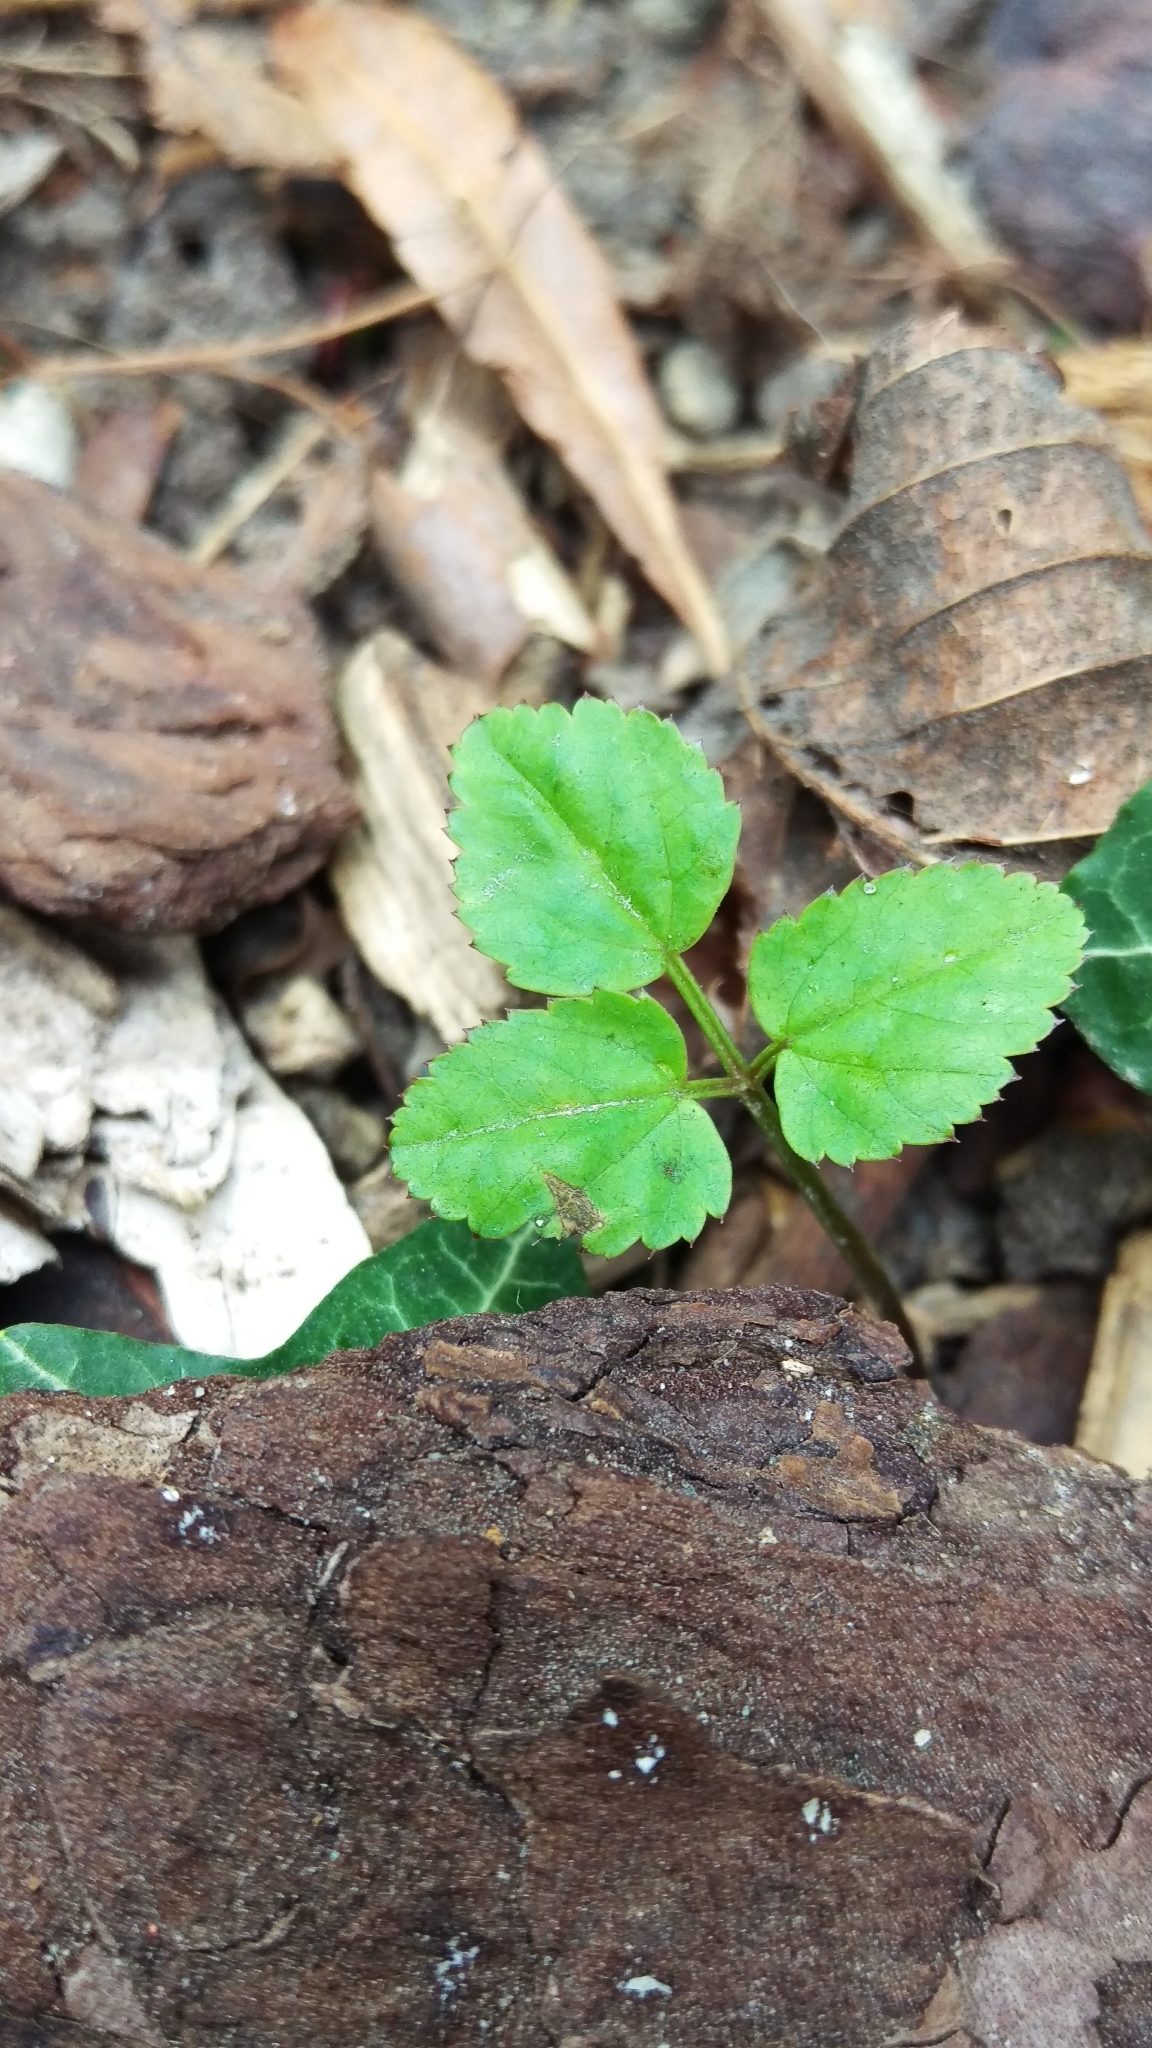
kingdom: Plantae
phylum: Tracheophyta
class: Magnoliopsida
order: Apiales
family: Apiaceae
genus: Aegopodium
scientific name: Aegopodium podagraria
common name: Ground-elder
